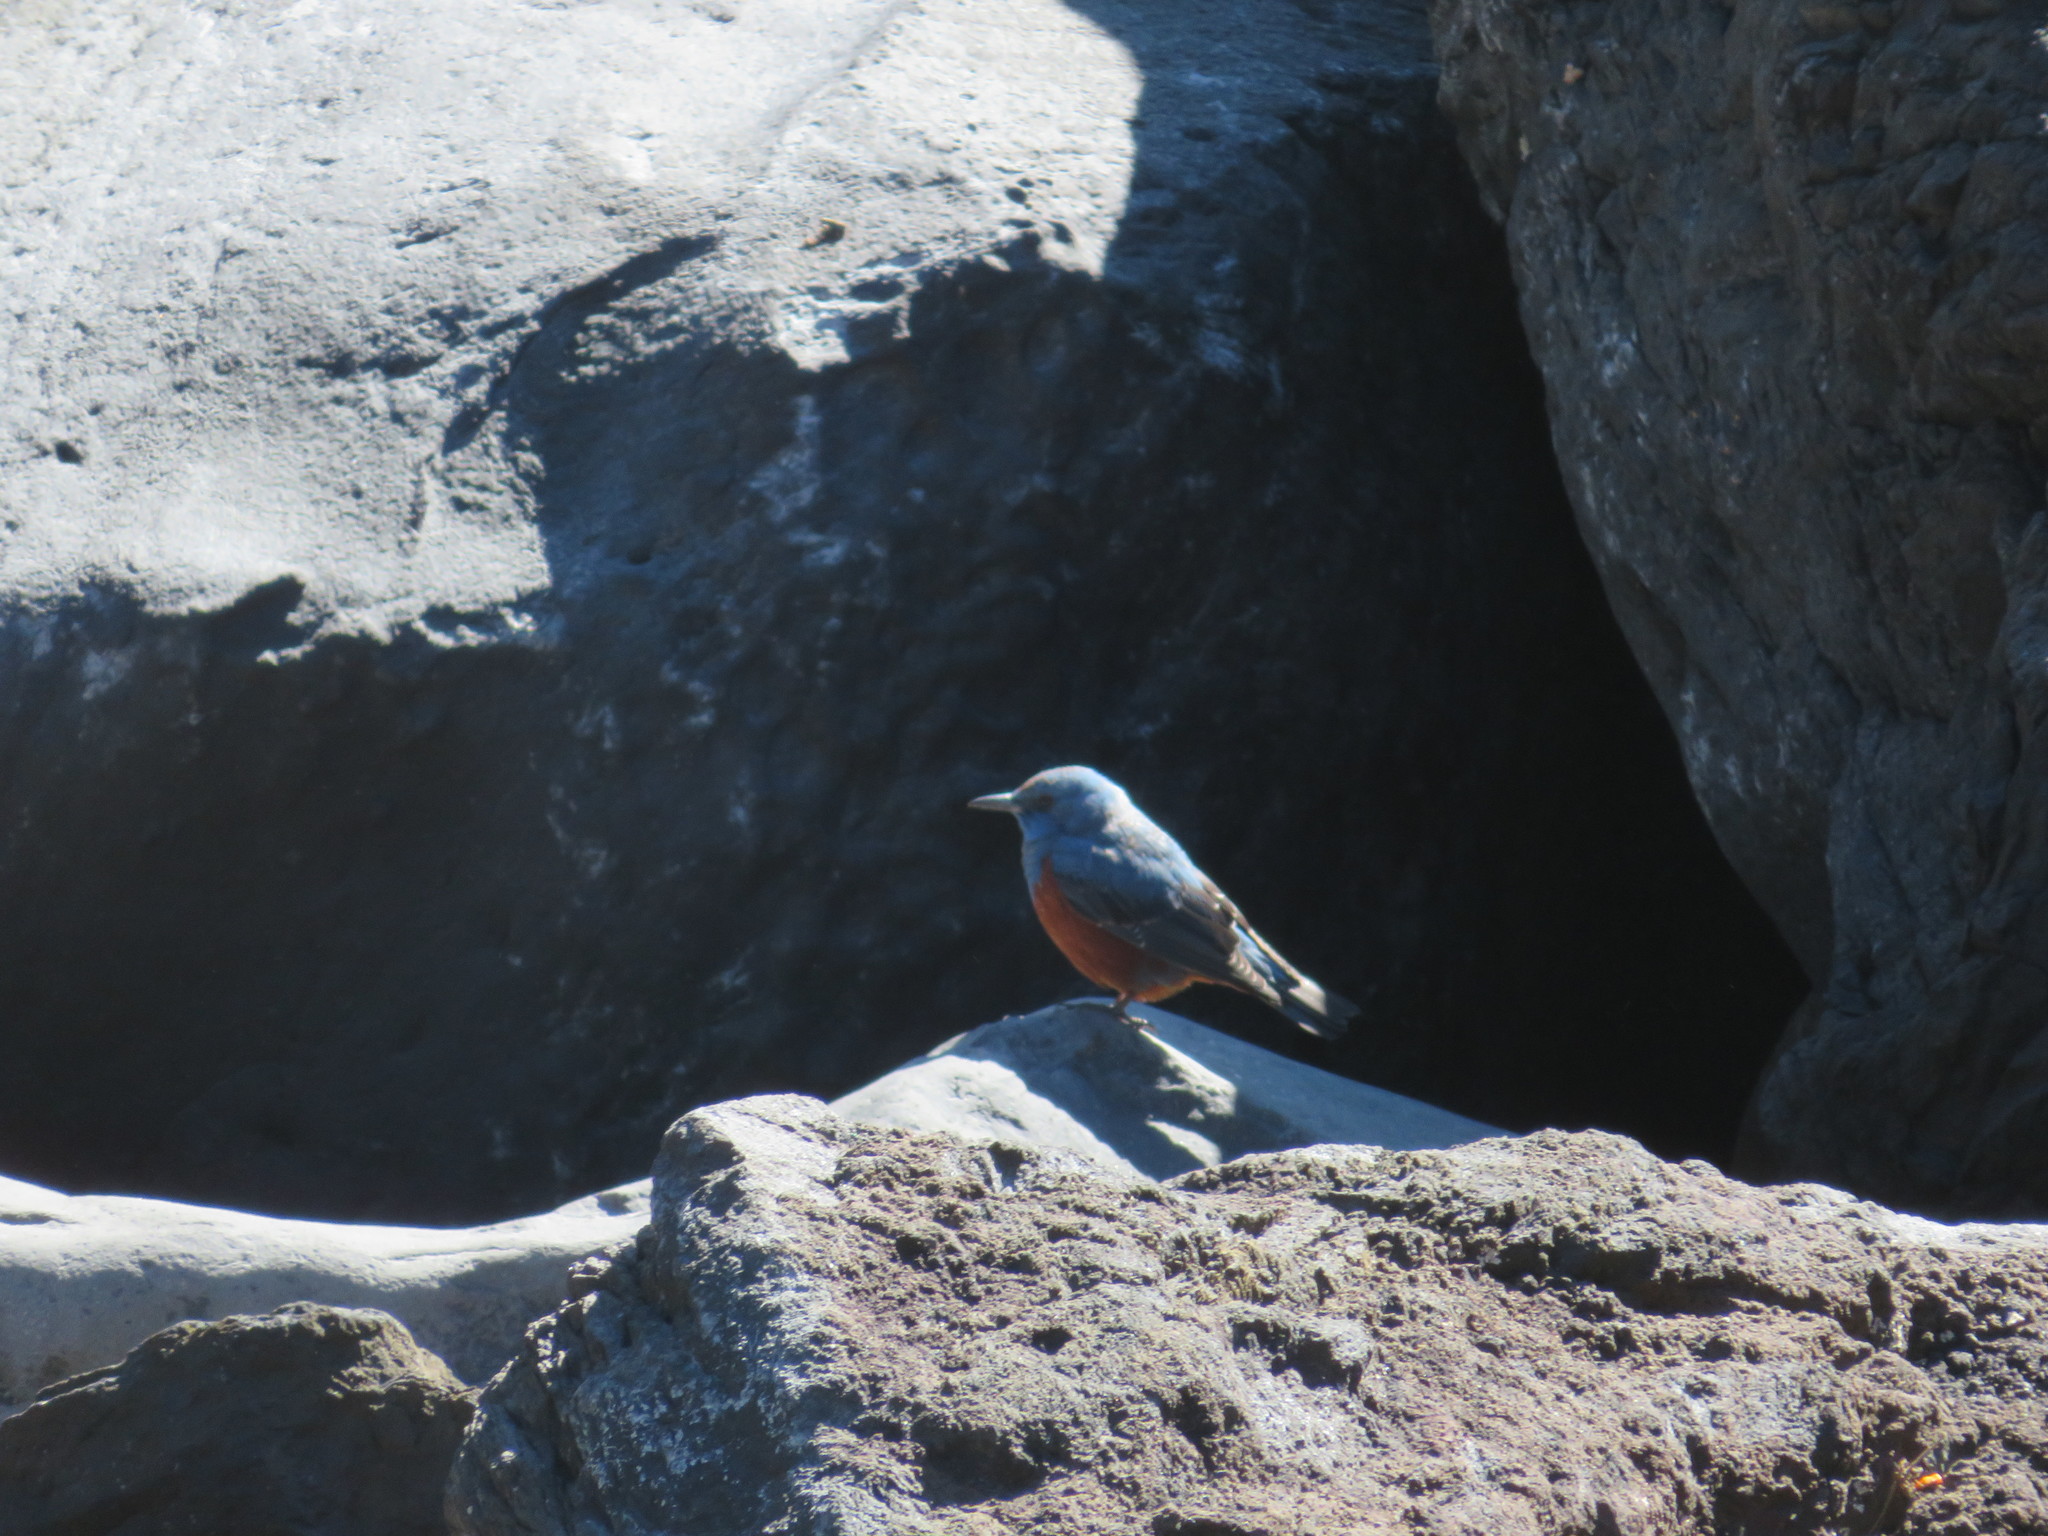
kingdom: Animalia
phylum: Chordata
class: Aves
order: Passeriformes
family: Muscicapidae
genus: Monticola
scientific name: Monticola solitarius
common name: Blue rock thrush
